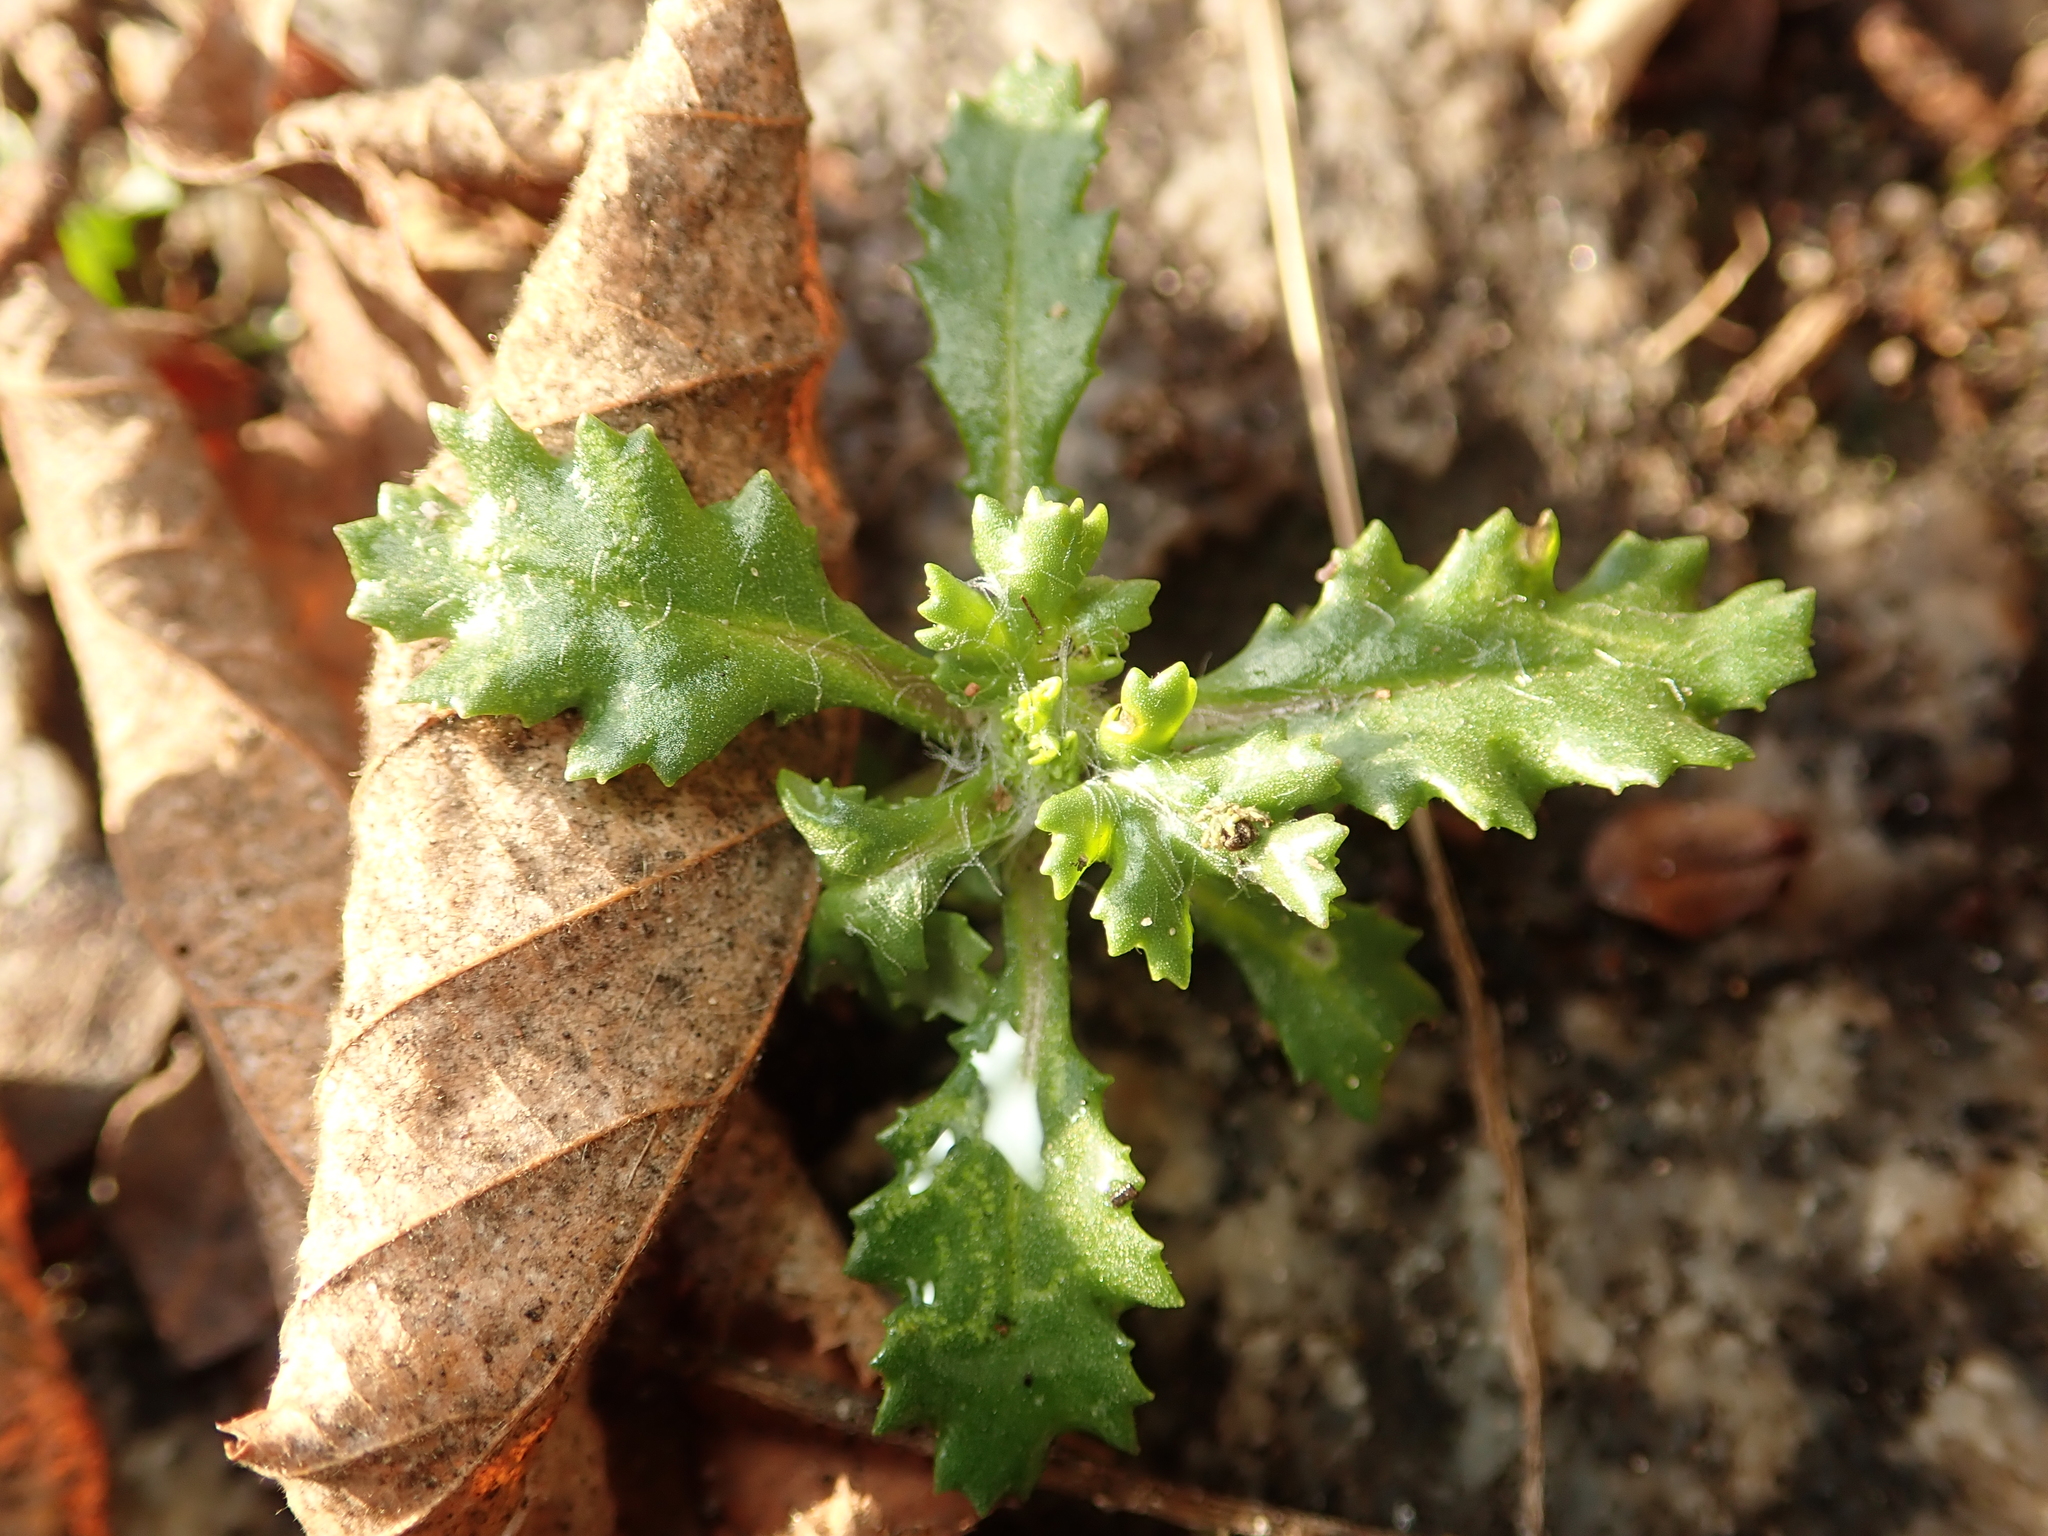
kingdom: Plantae
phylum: Tracheophyta
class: Magnoliopsida
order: Asterales
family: Asteraceae
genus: Senecio
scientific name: Senecio vulgaris
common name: Old-man-in-the-spring
